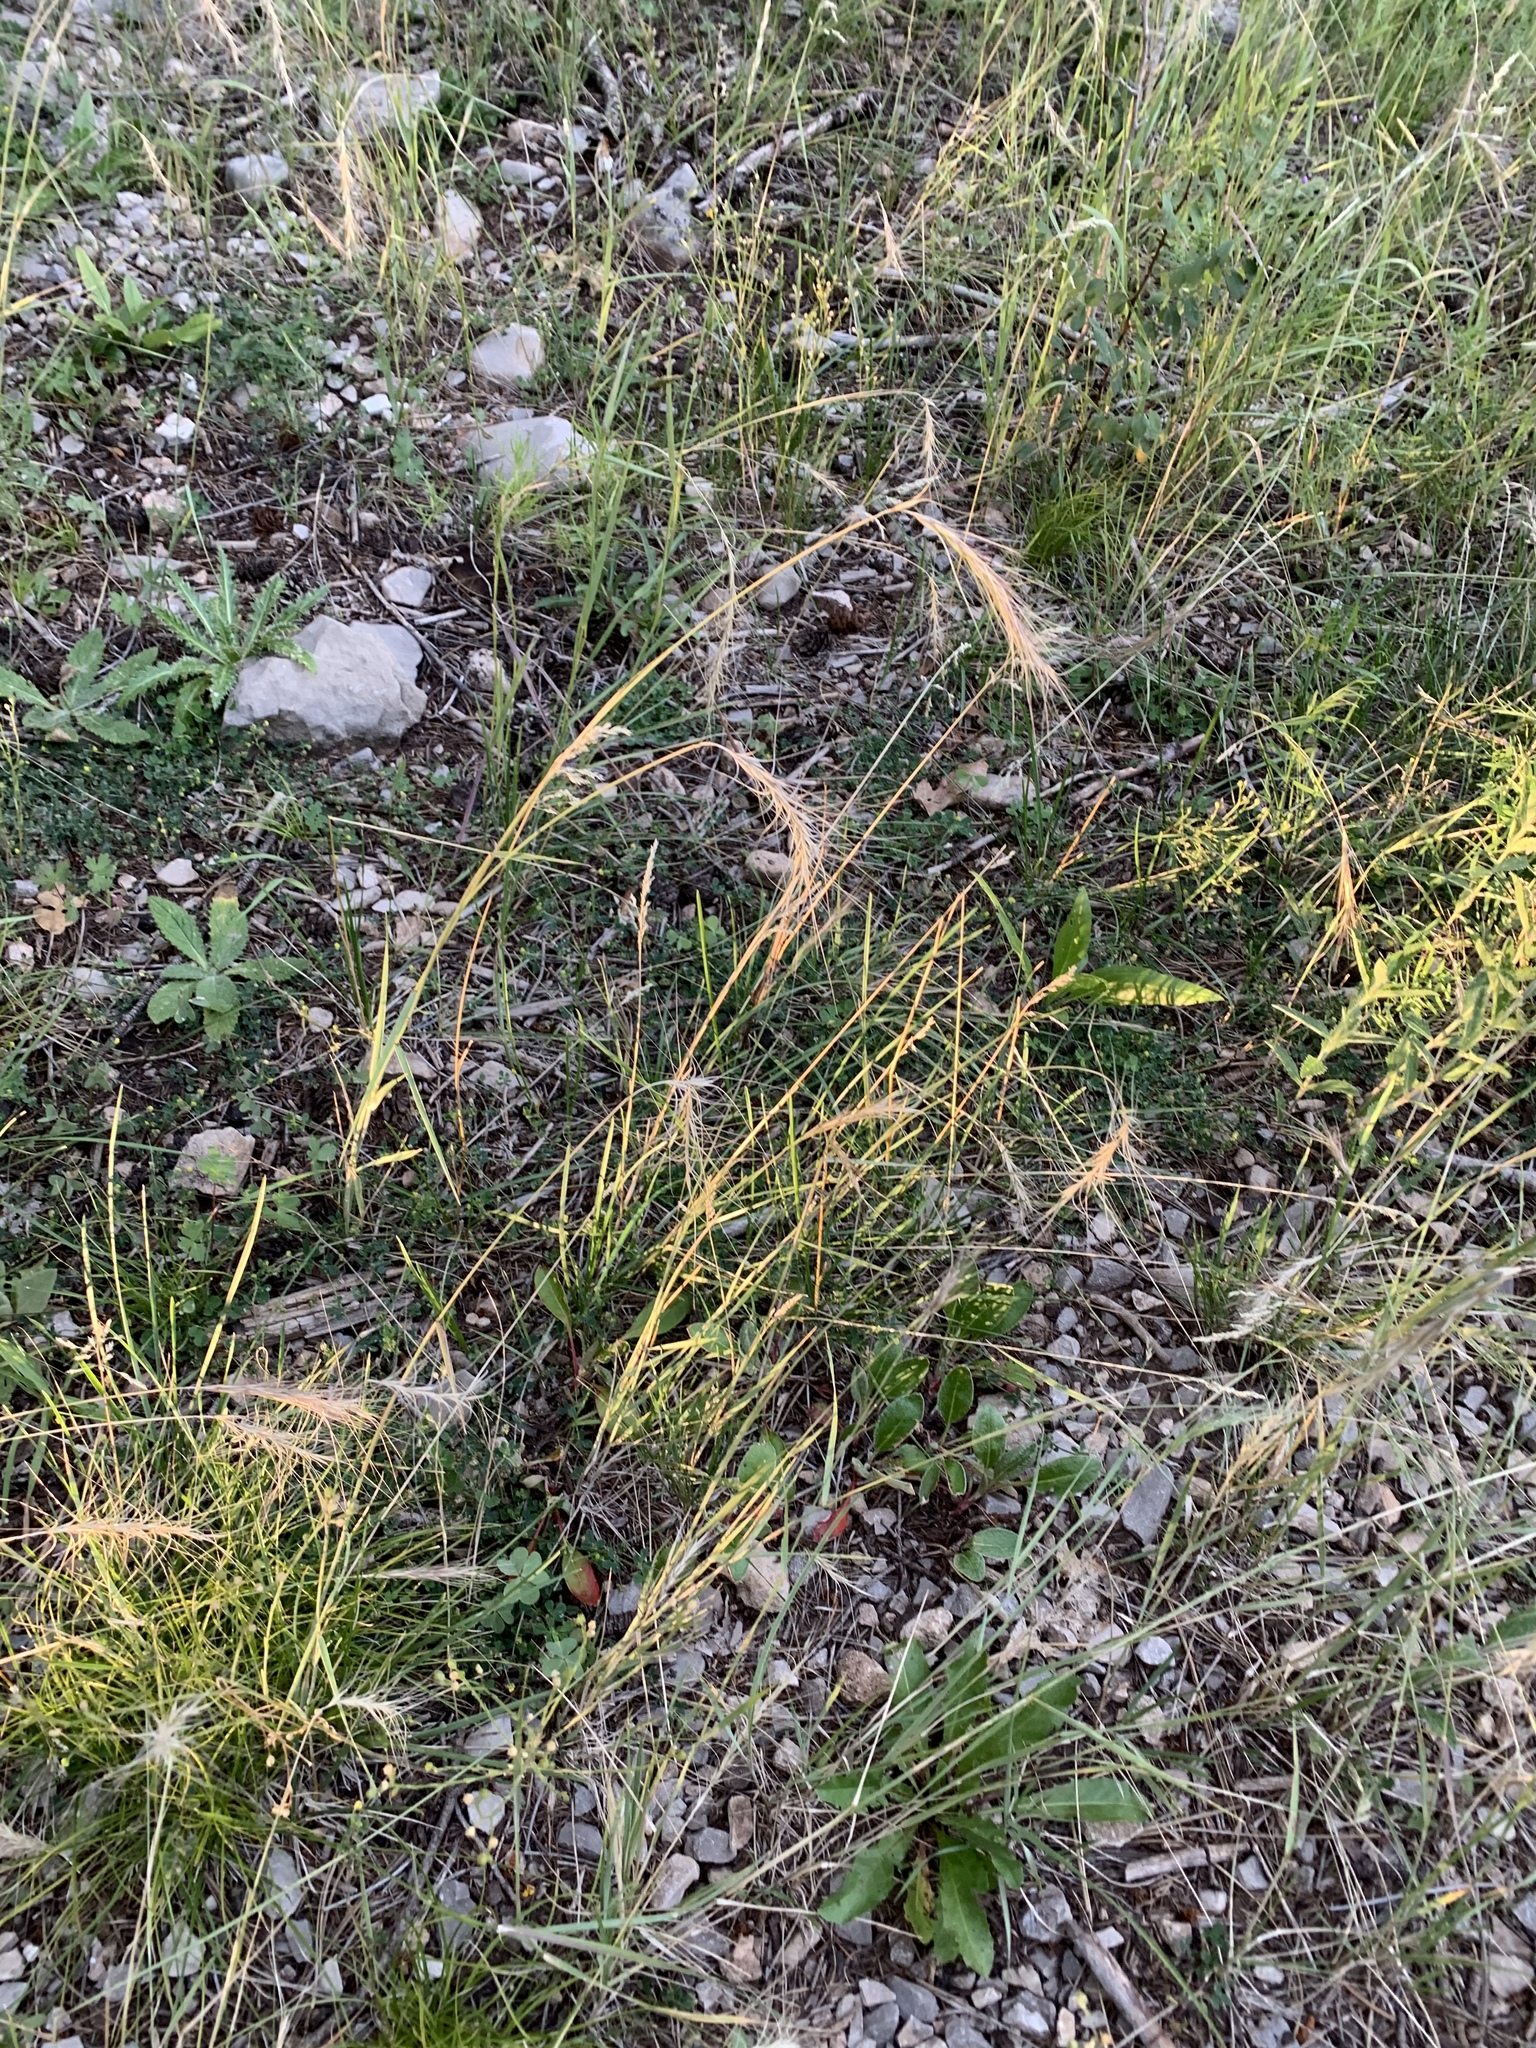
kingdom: Plantae
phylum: Tracheophyta
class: Liliopsida
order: Poales
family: Poaceae
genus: Elymus
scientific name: Elymus elymoides
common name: Bottlebrush squirreltail
